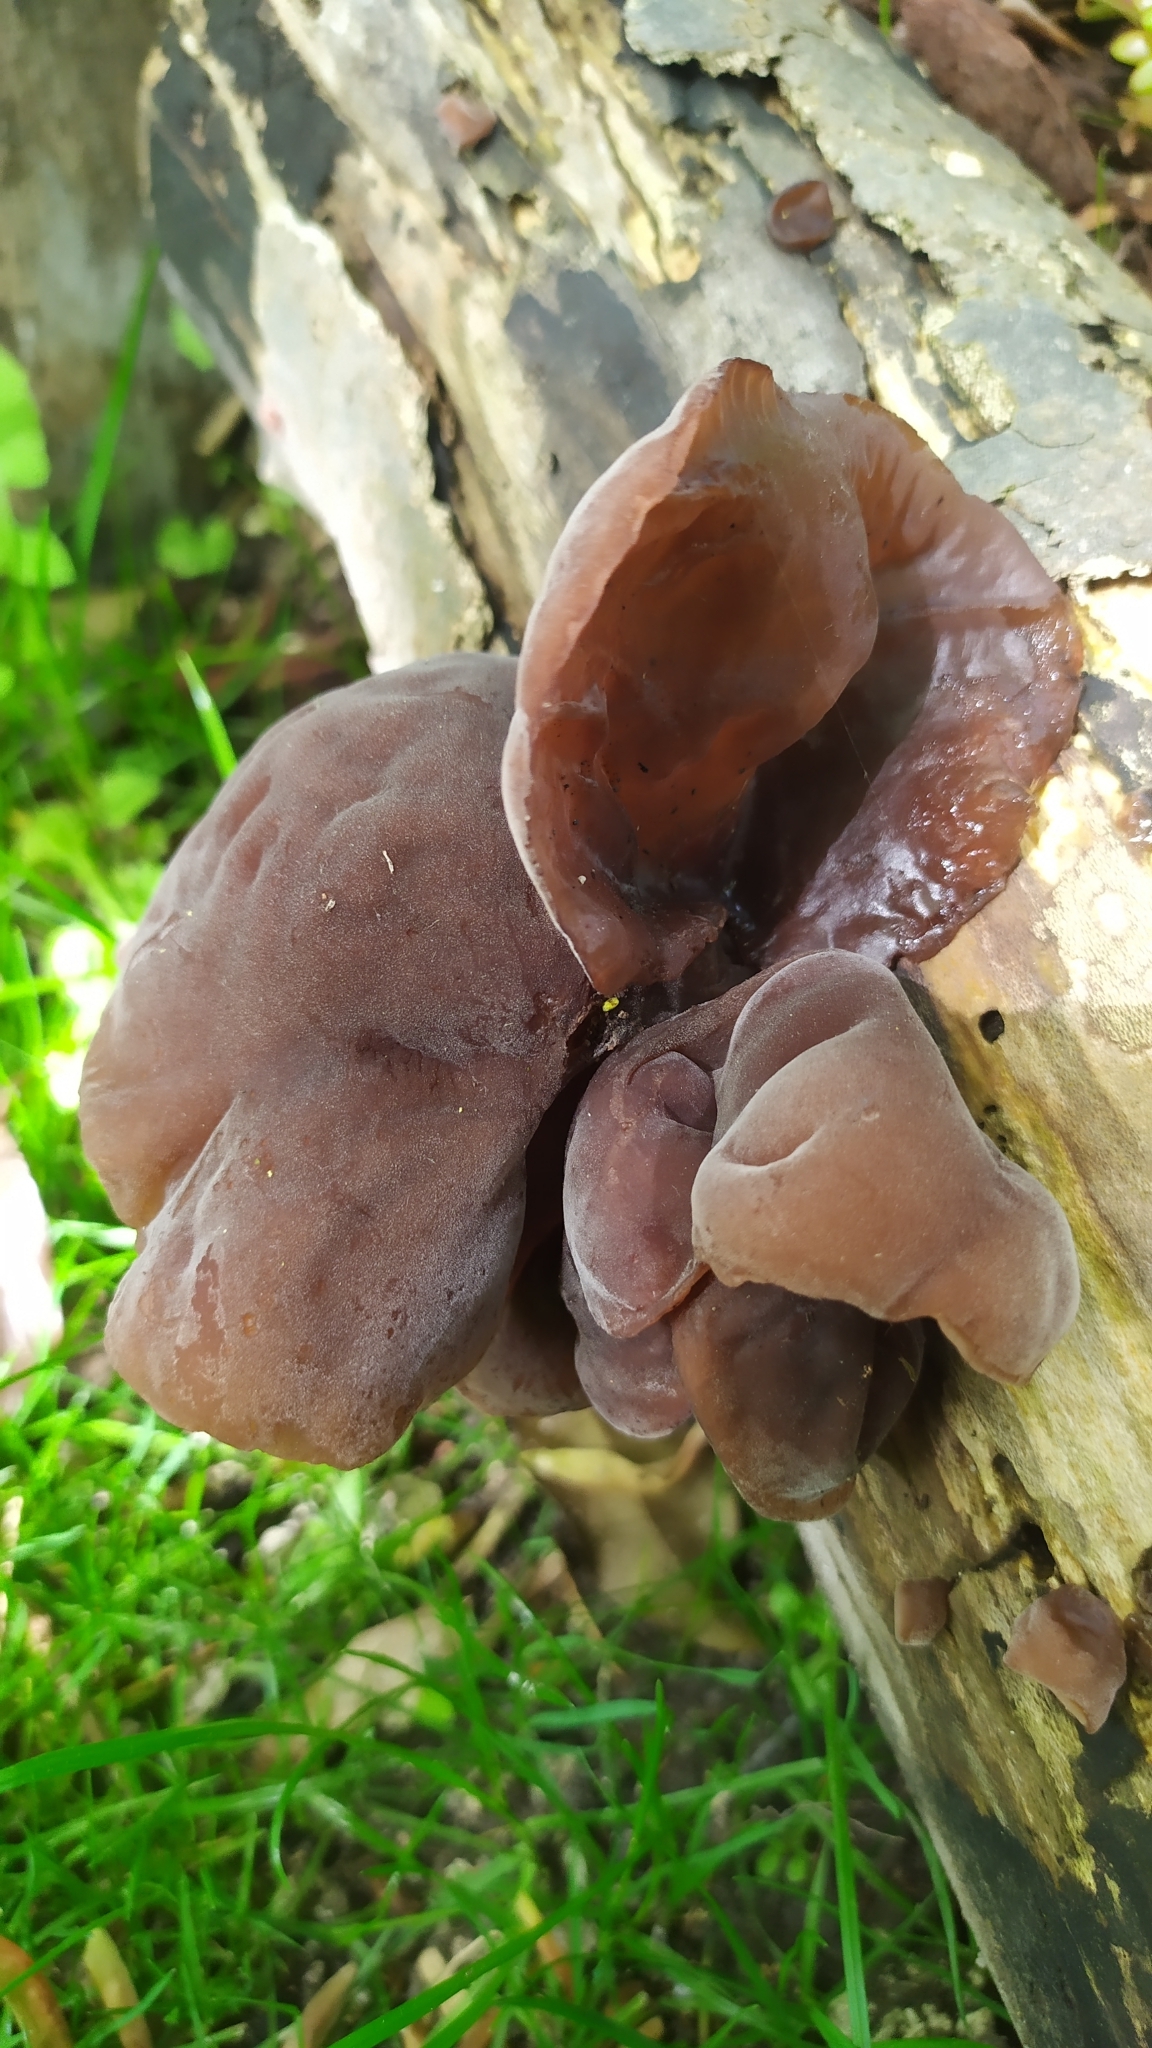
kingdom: Fungi
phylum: Basidiomycota
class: Agaricomycetes
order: Auriculariales
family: Auriculariaceae
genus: Auricularia
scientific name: Auricularia auricula-judae
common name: Jelly ear
